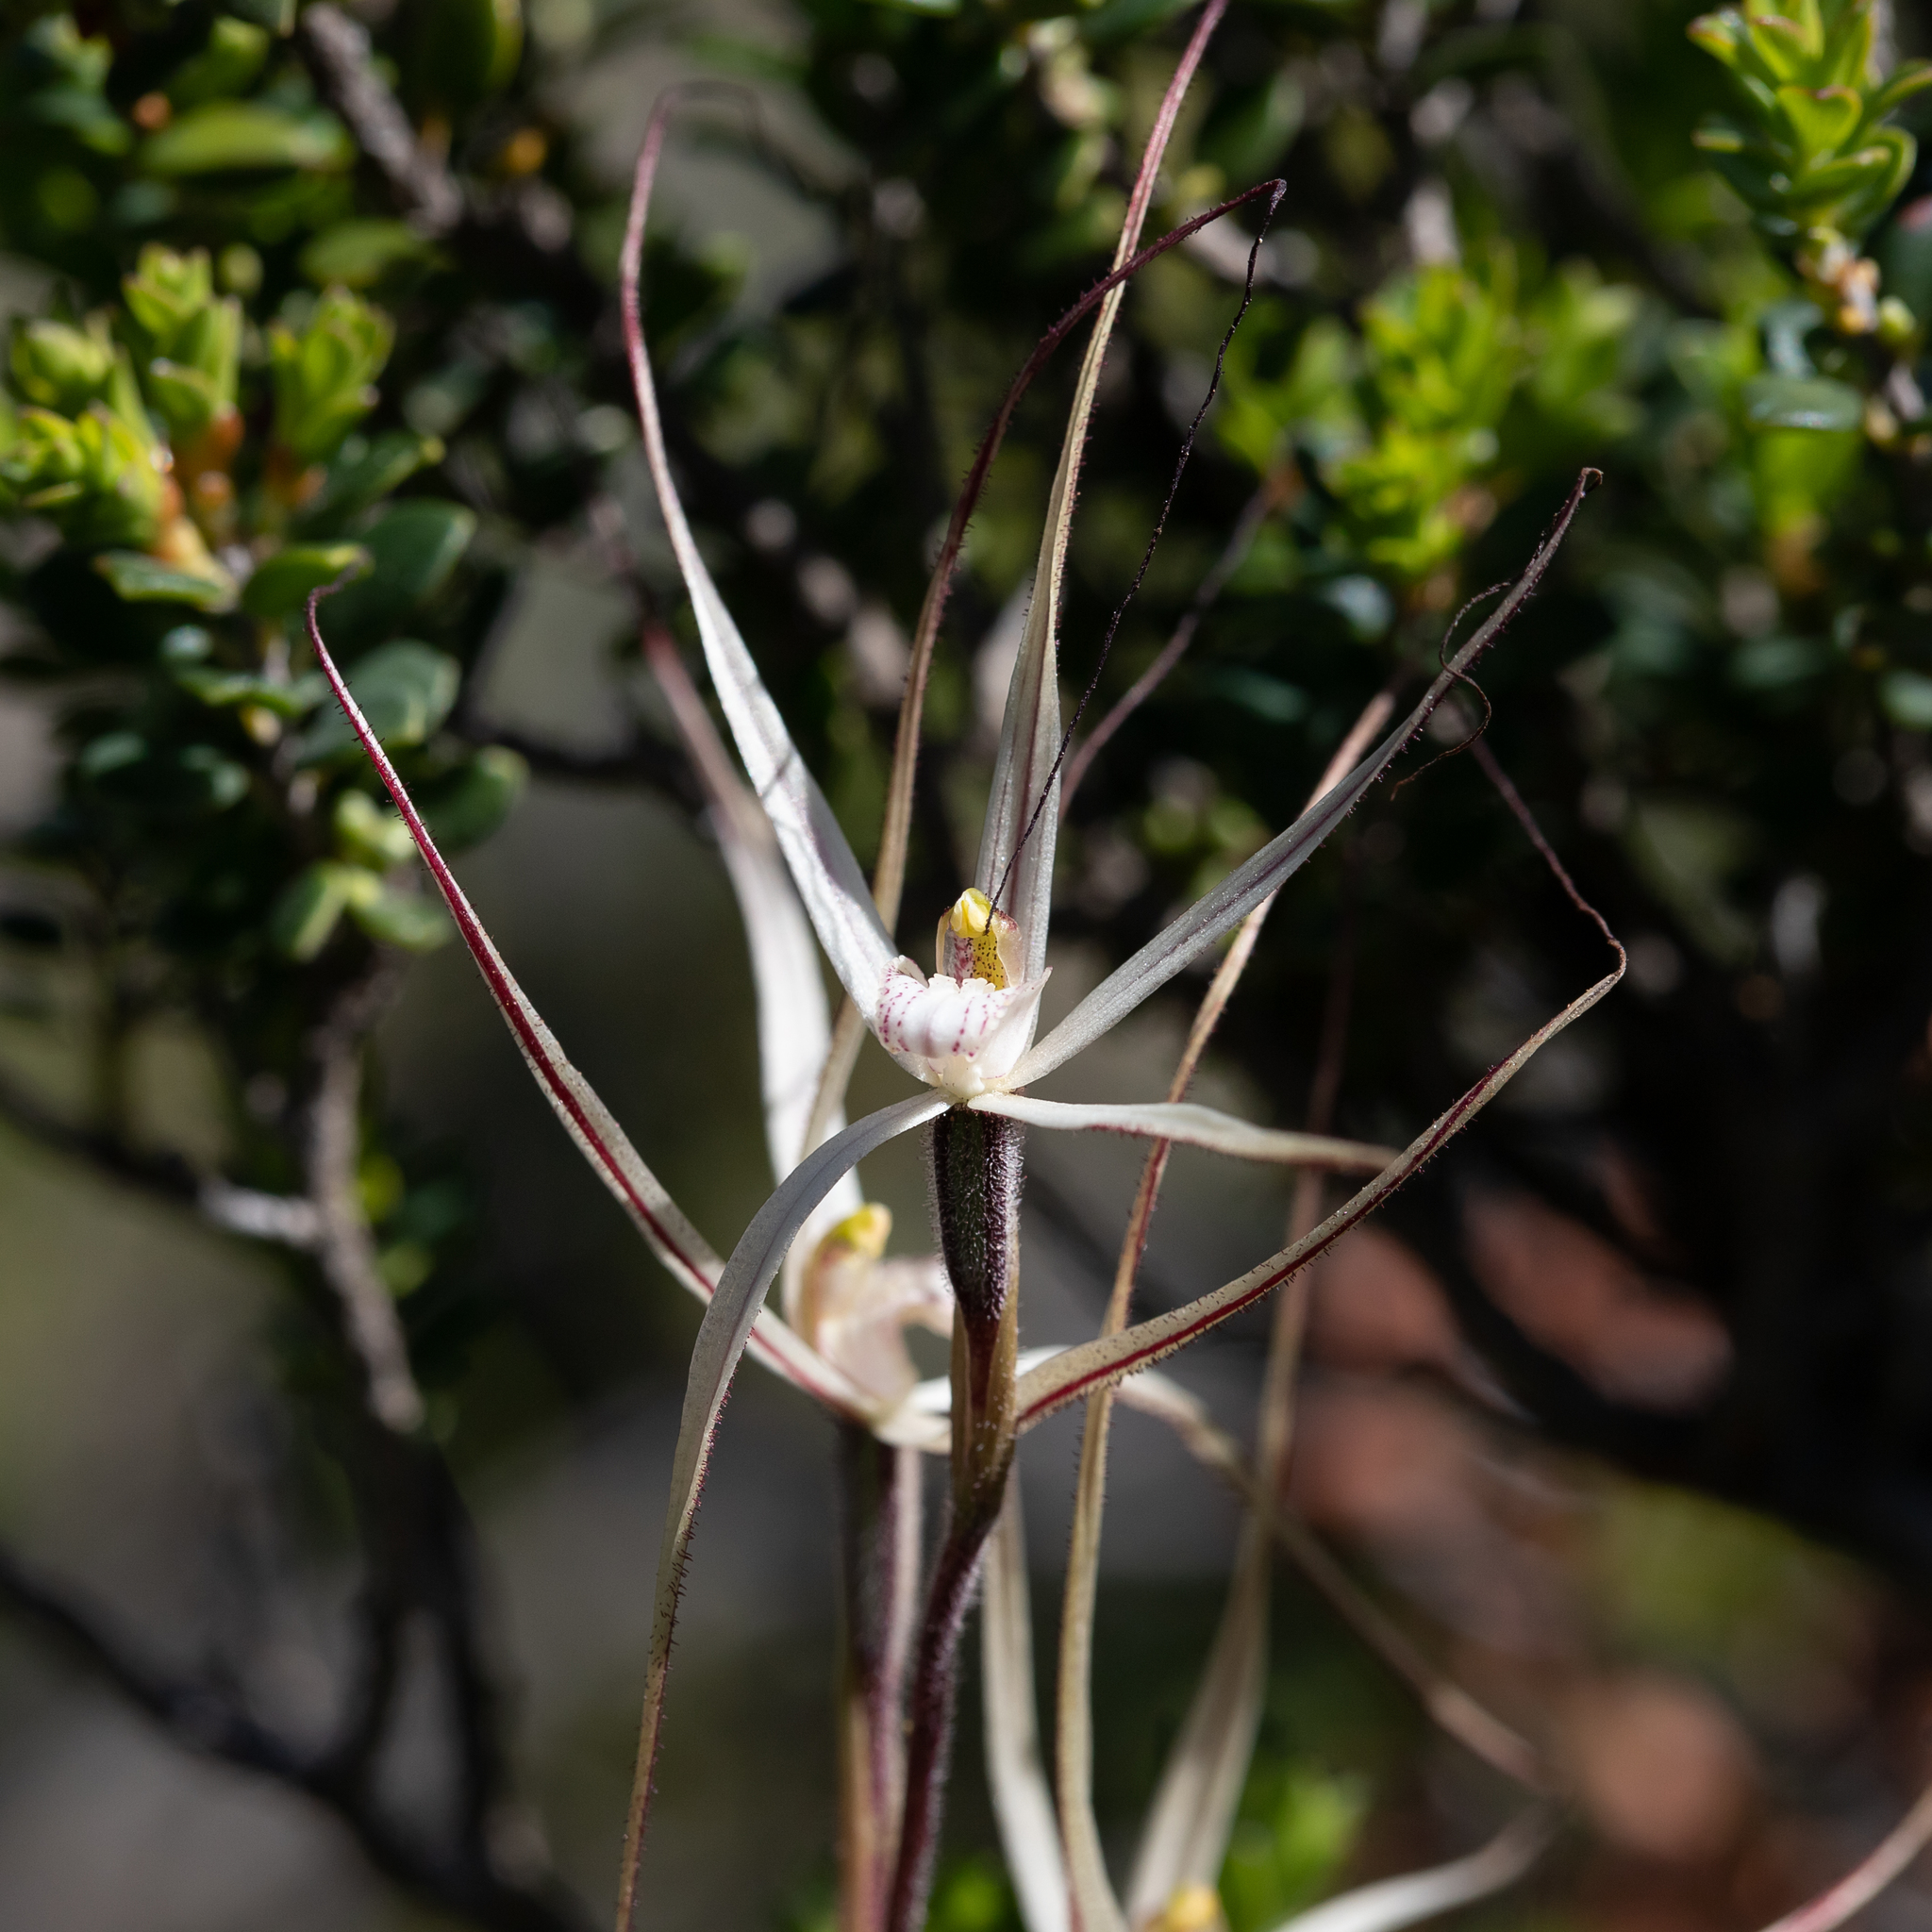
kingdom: Plantae
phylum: Tracheophyta
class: Liliopsida
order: Asparagales
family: Orchidaceae
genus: Caladenia
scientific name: Caladenia capillata
